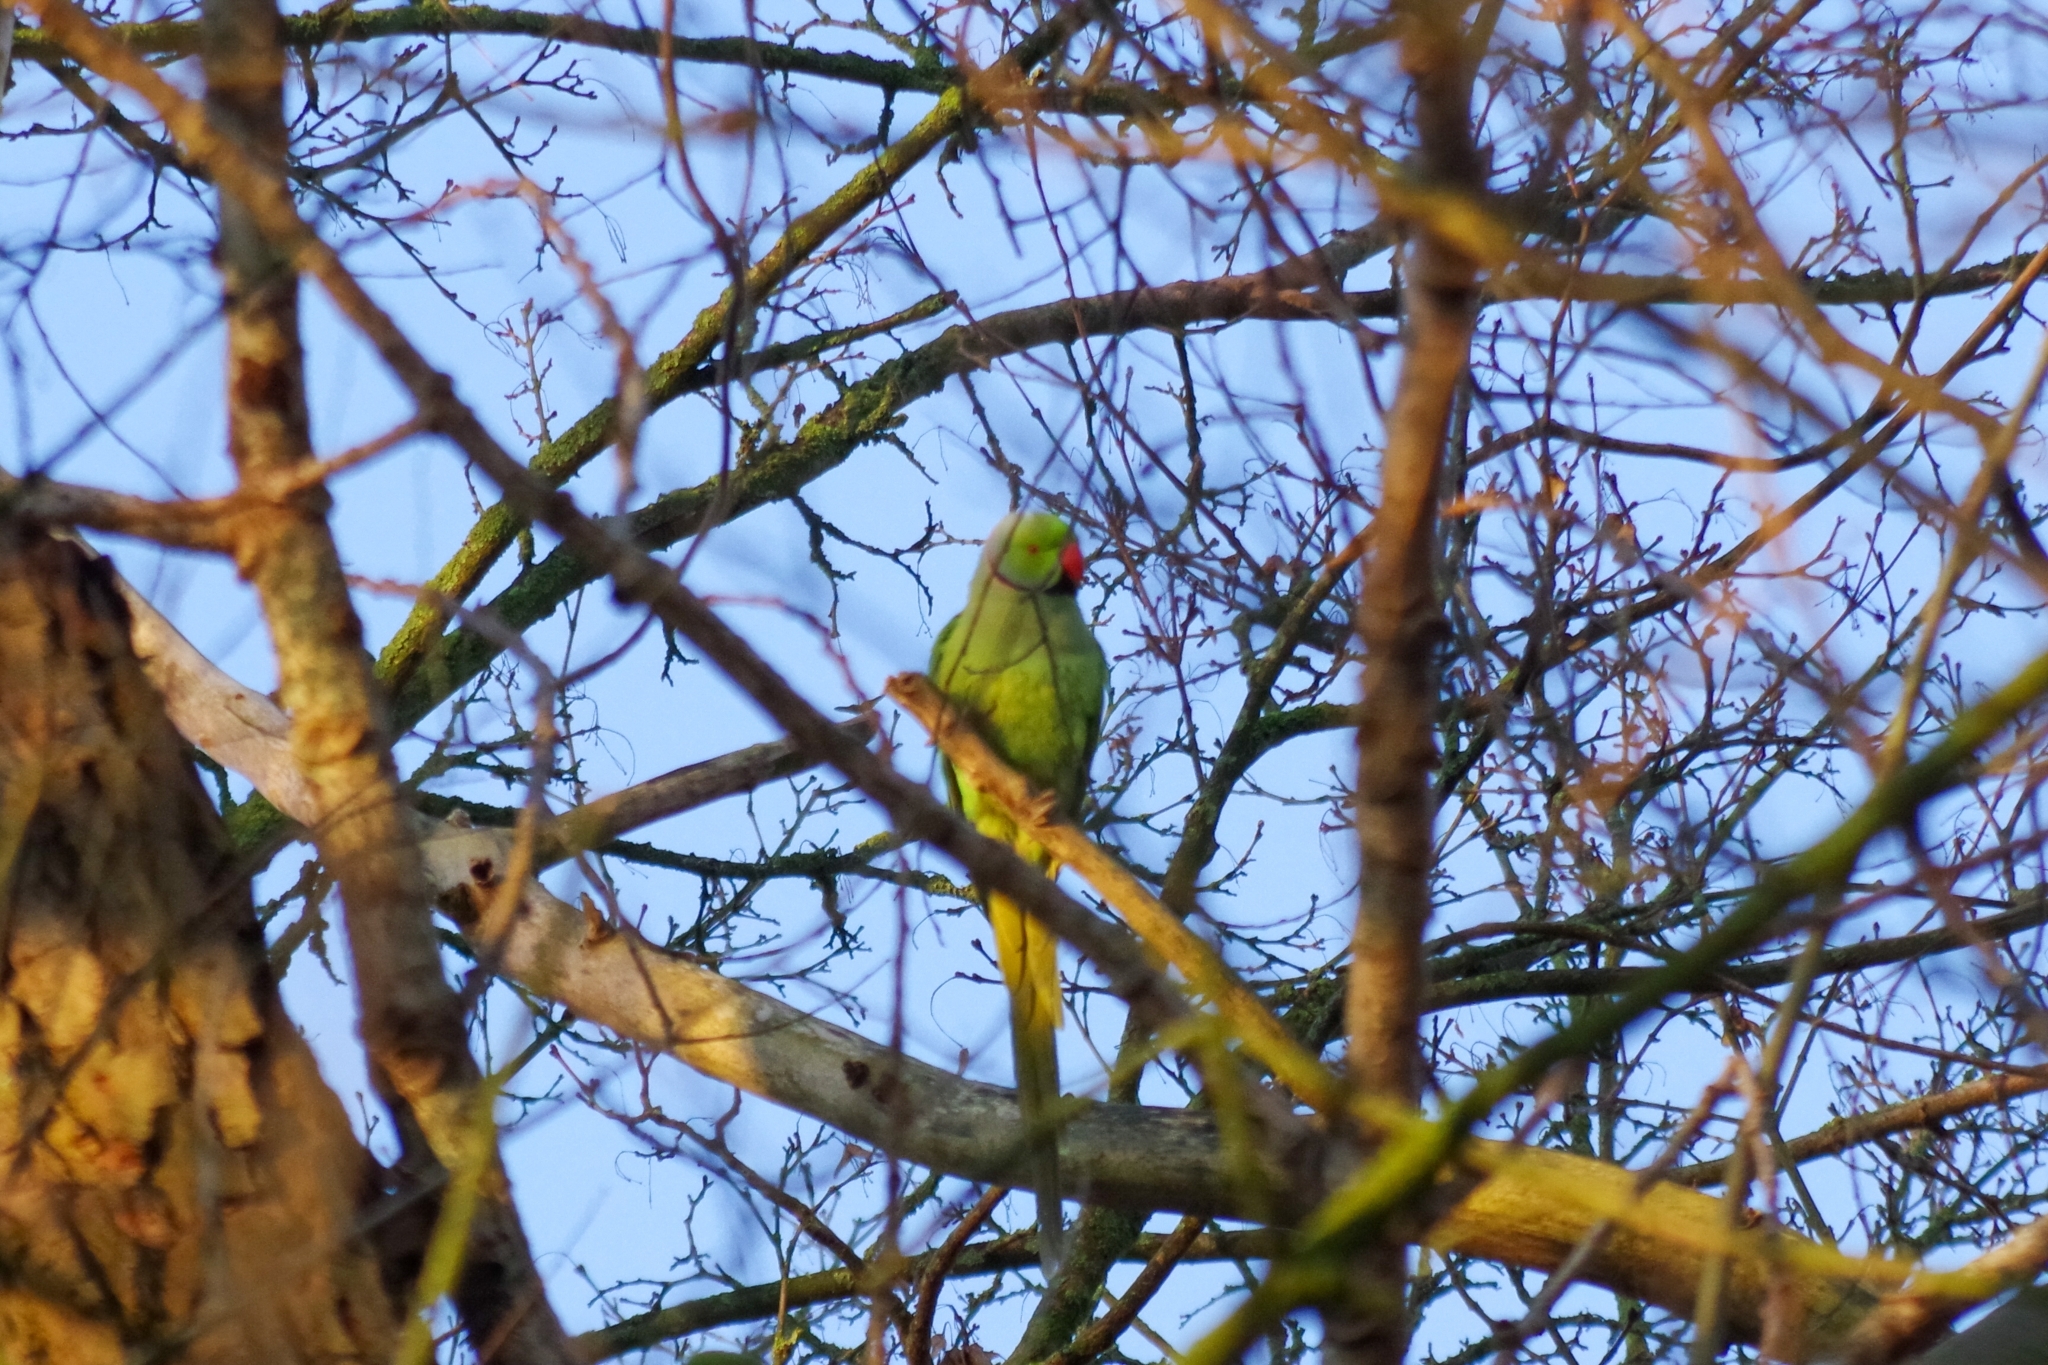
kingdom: Animalia
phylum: Chordata
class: Aves
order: Psittaciformes
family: Psittacidae
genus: Psittacula
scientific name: Psittacula krameri
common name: Rose-ringed parakeet
